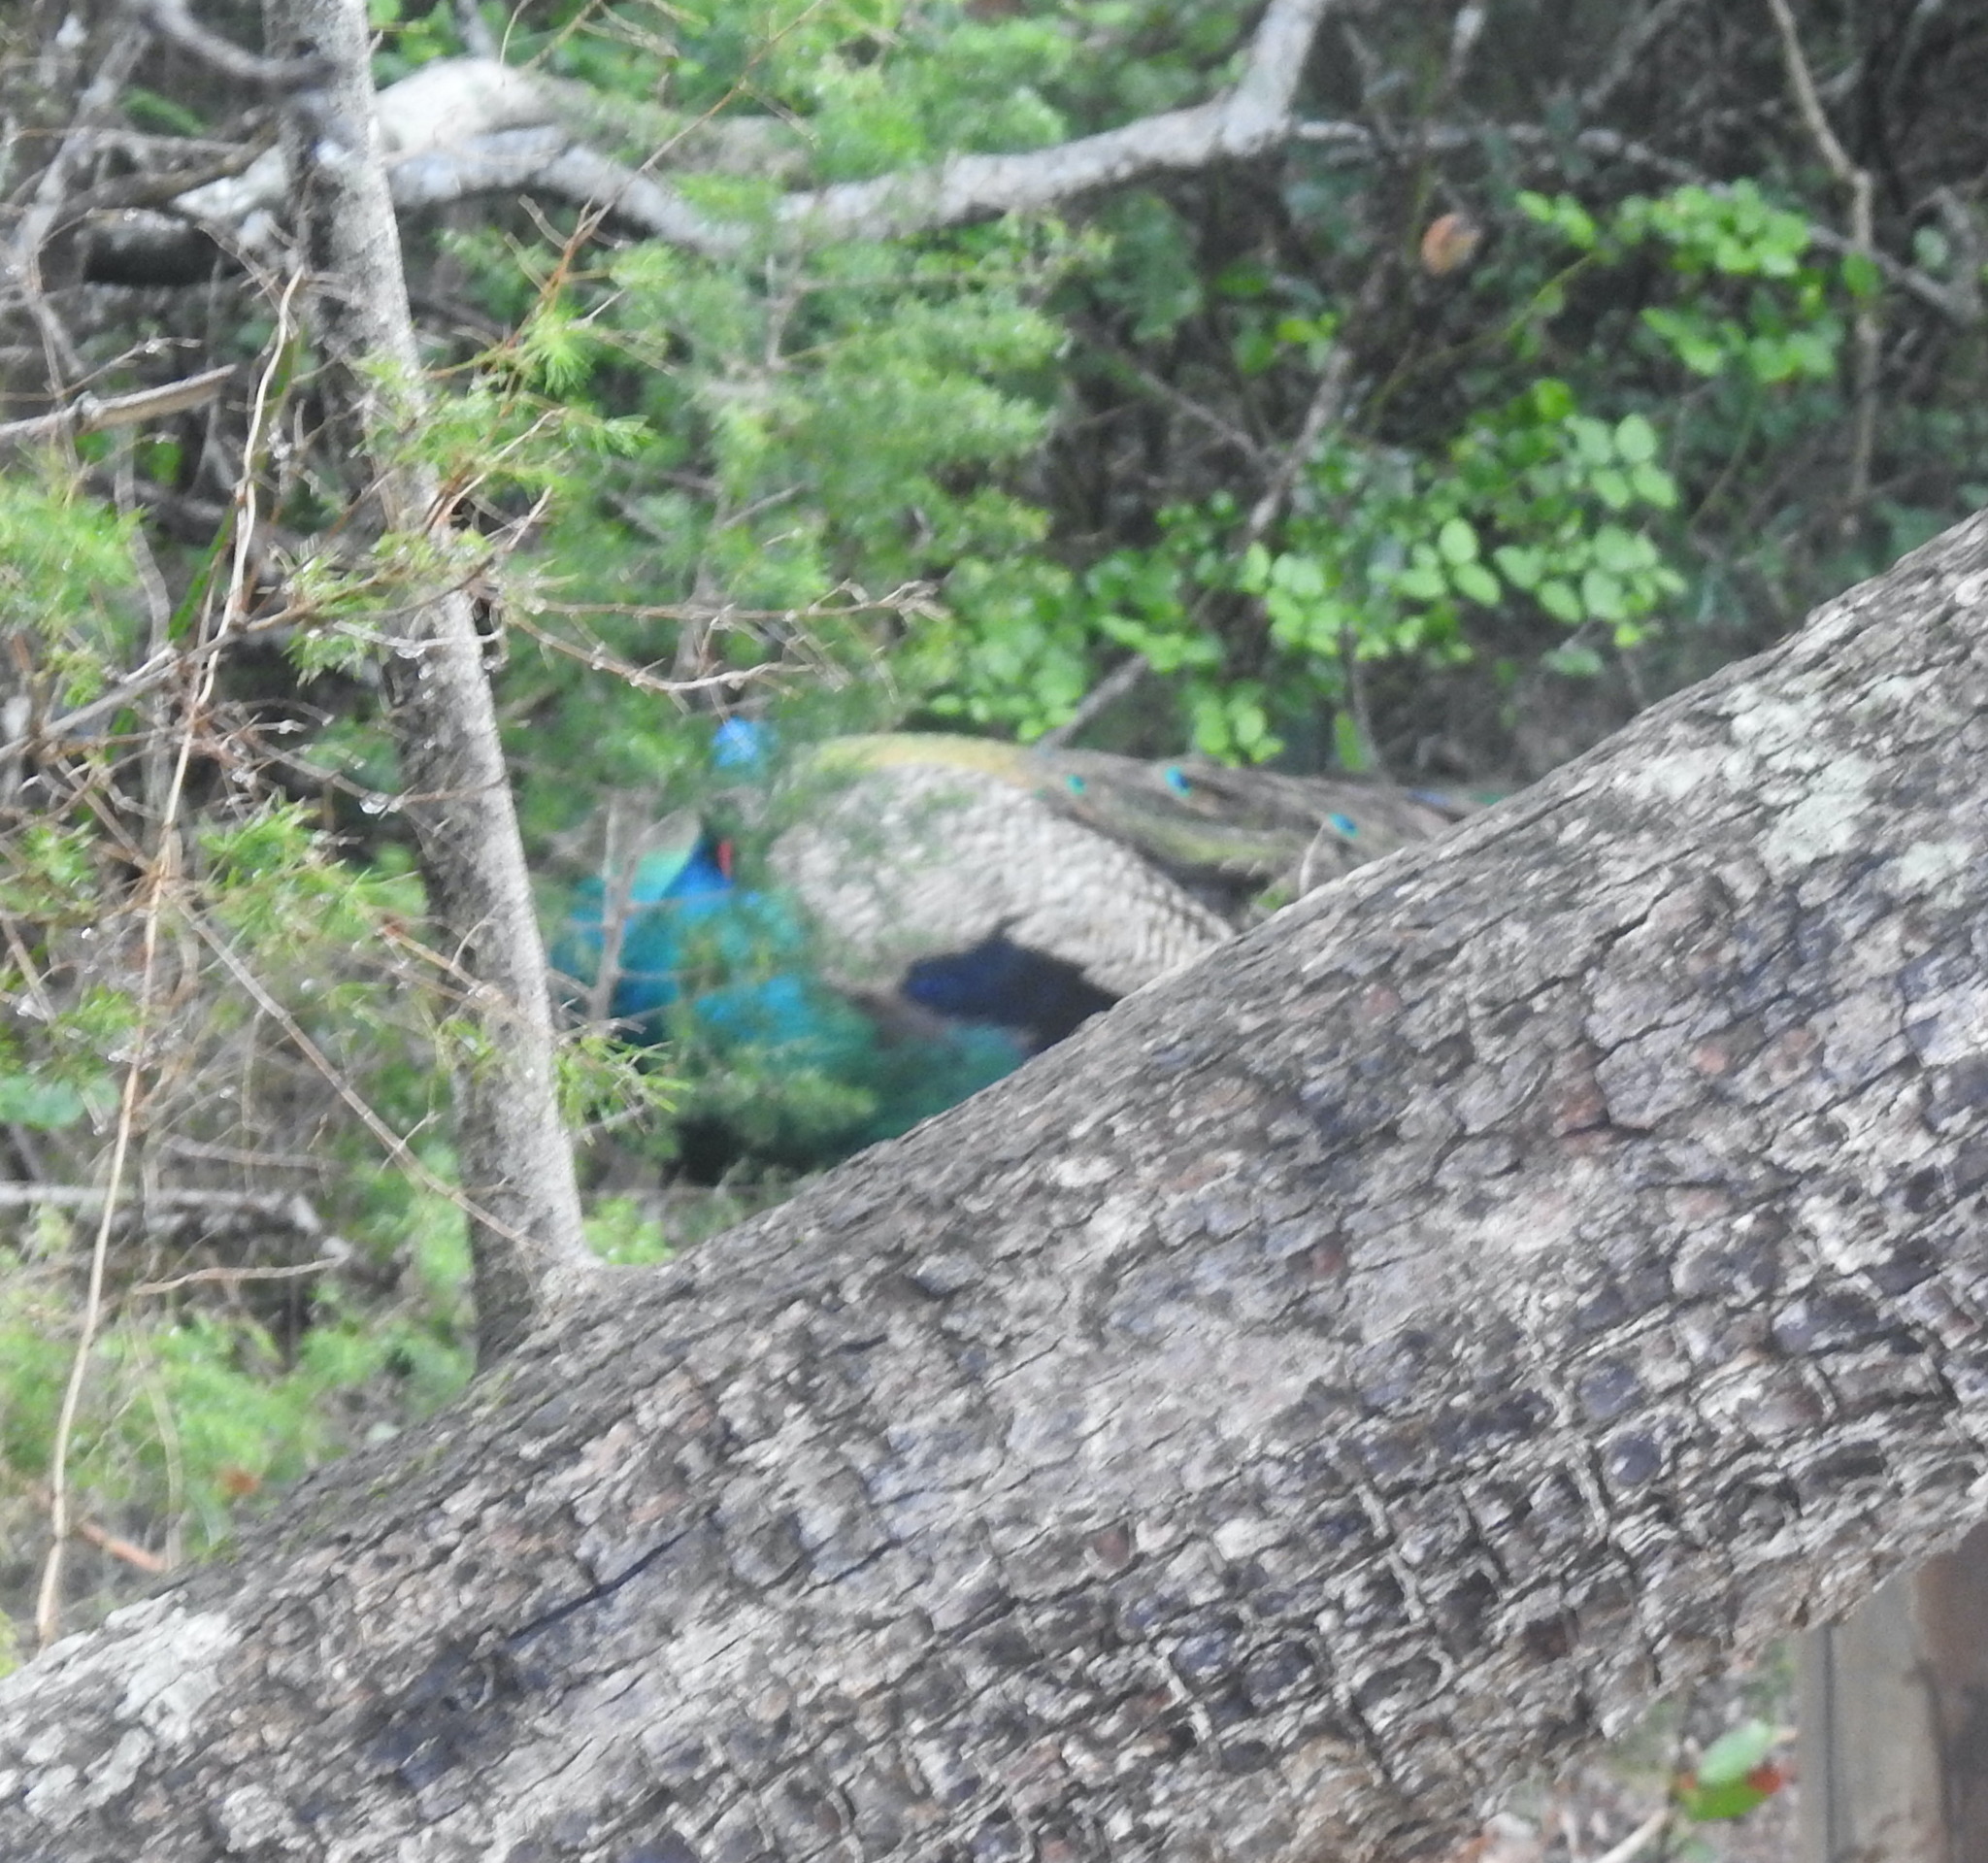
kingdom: Animalia
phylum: Chordata
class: Aves
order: Galliformes
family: Phasianidae
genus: Pavo
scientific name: Pavo cristatus
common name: Indian peafowl
